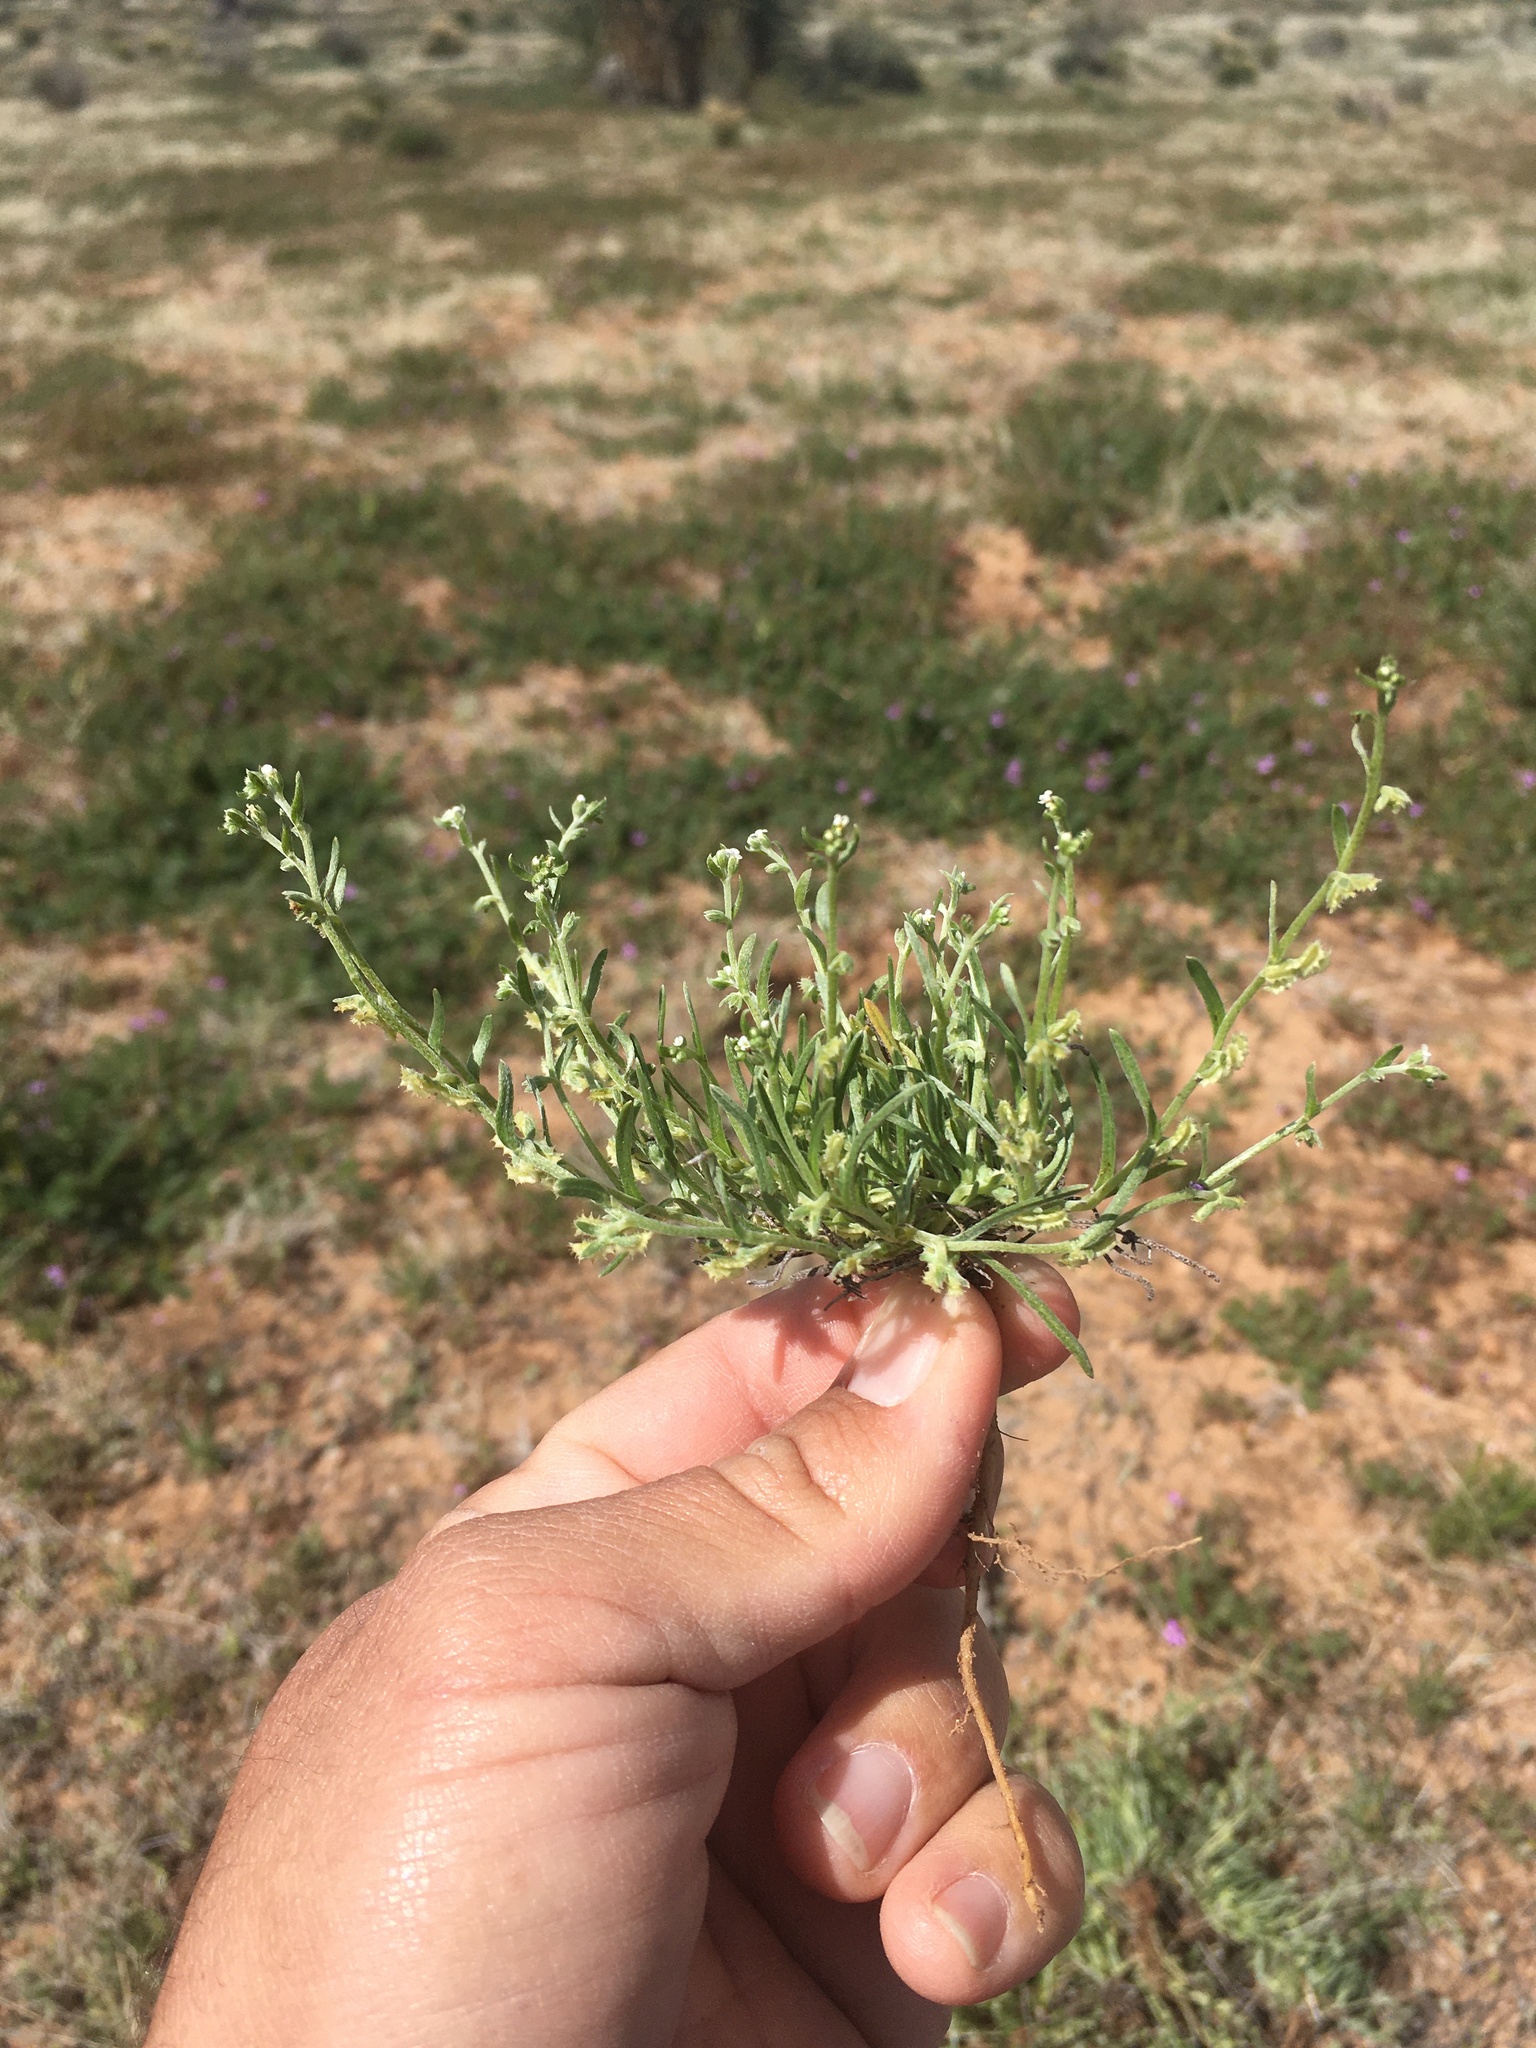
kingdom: Plantae
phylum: Tracheophyta
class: Magnoliopsida
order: Boraginales
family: Boraginaceae
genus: Pectocarya
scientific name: Pectocarya platycarpa
